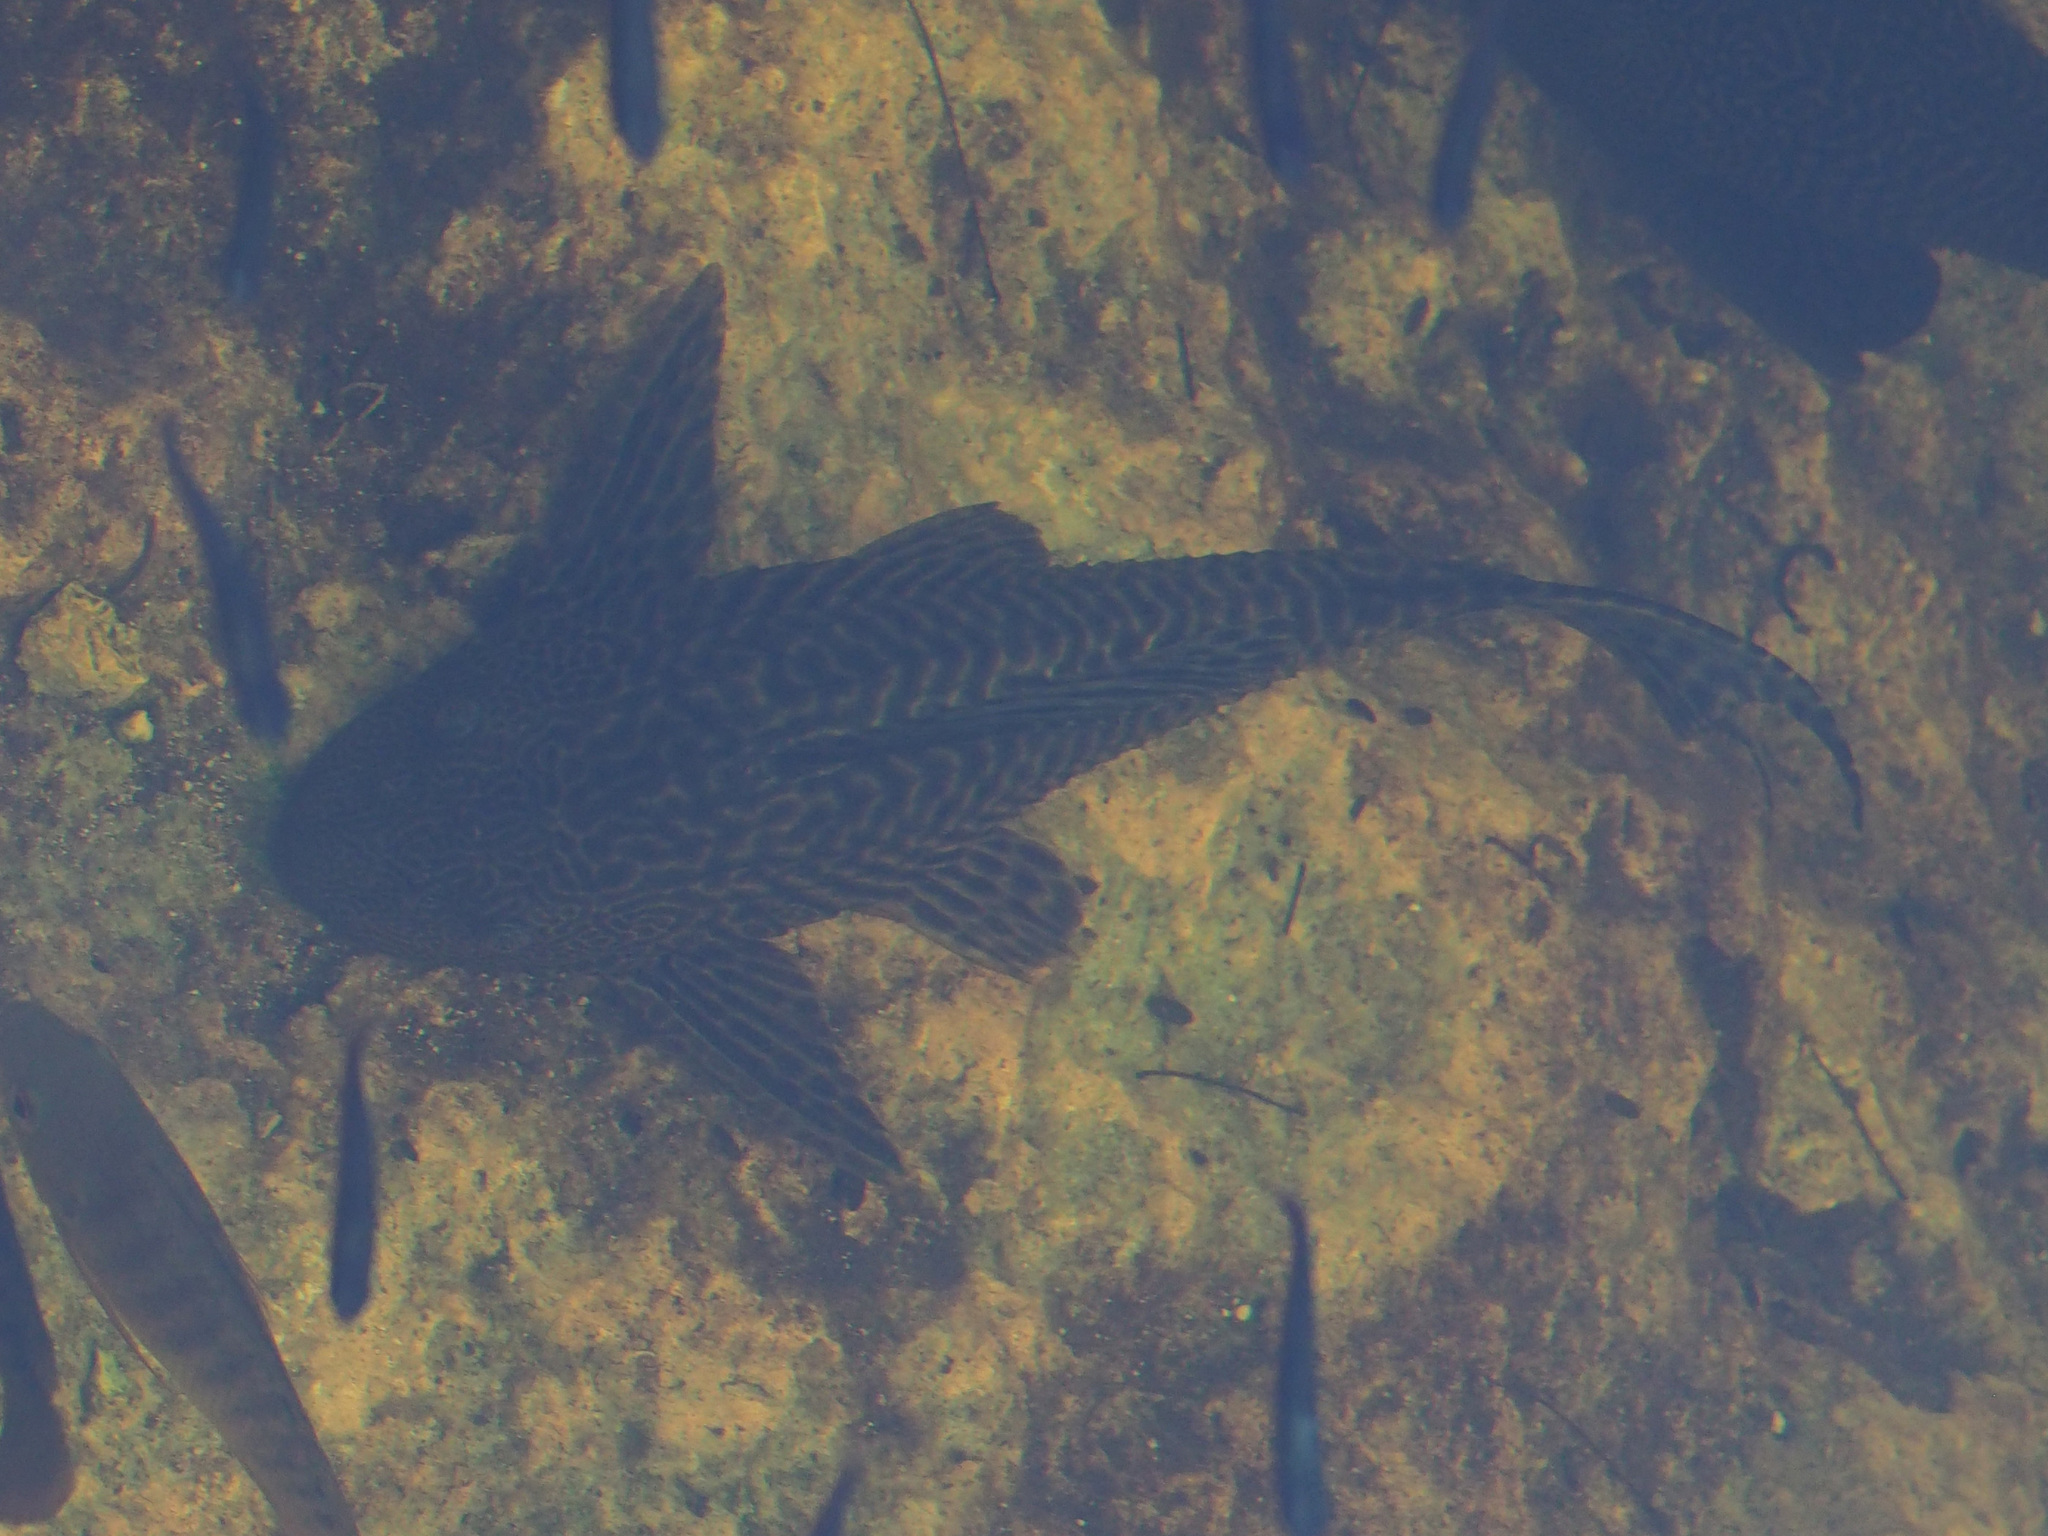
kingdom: Animalia
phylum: Chordata
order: Siluriformes
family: Loricariidae
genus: Pterygoplichthys
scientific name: Pterygoplichthys
